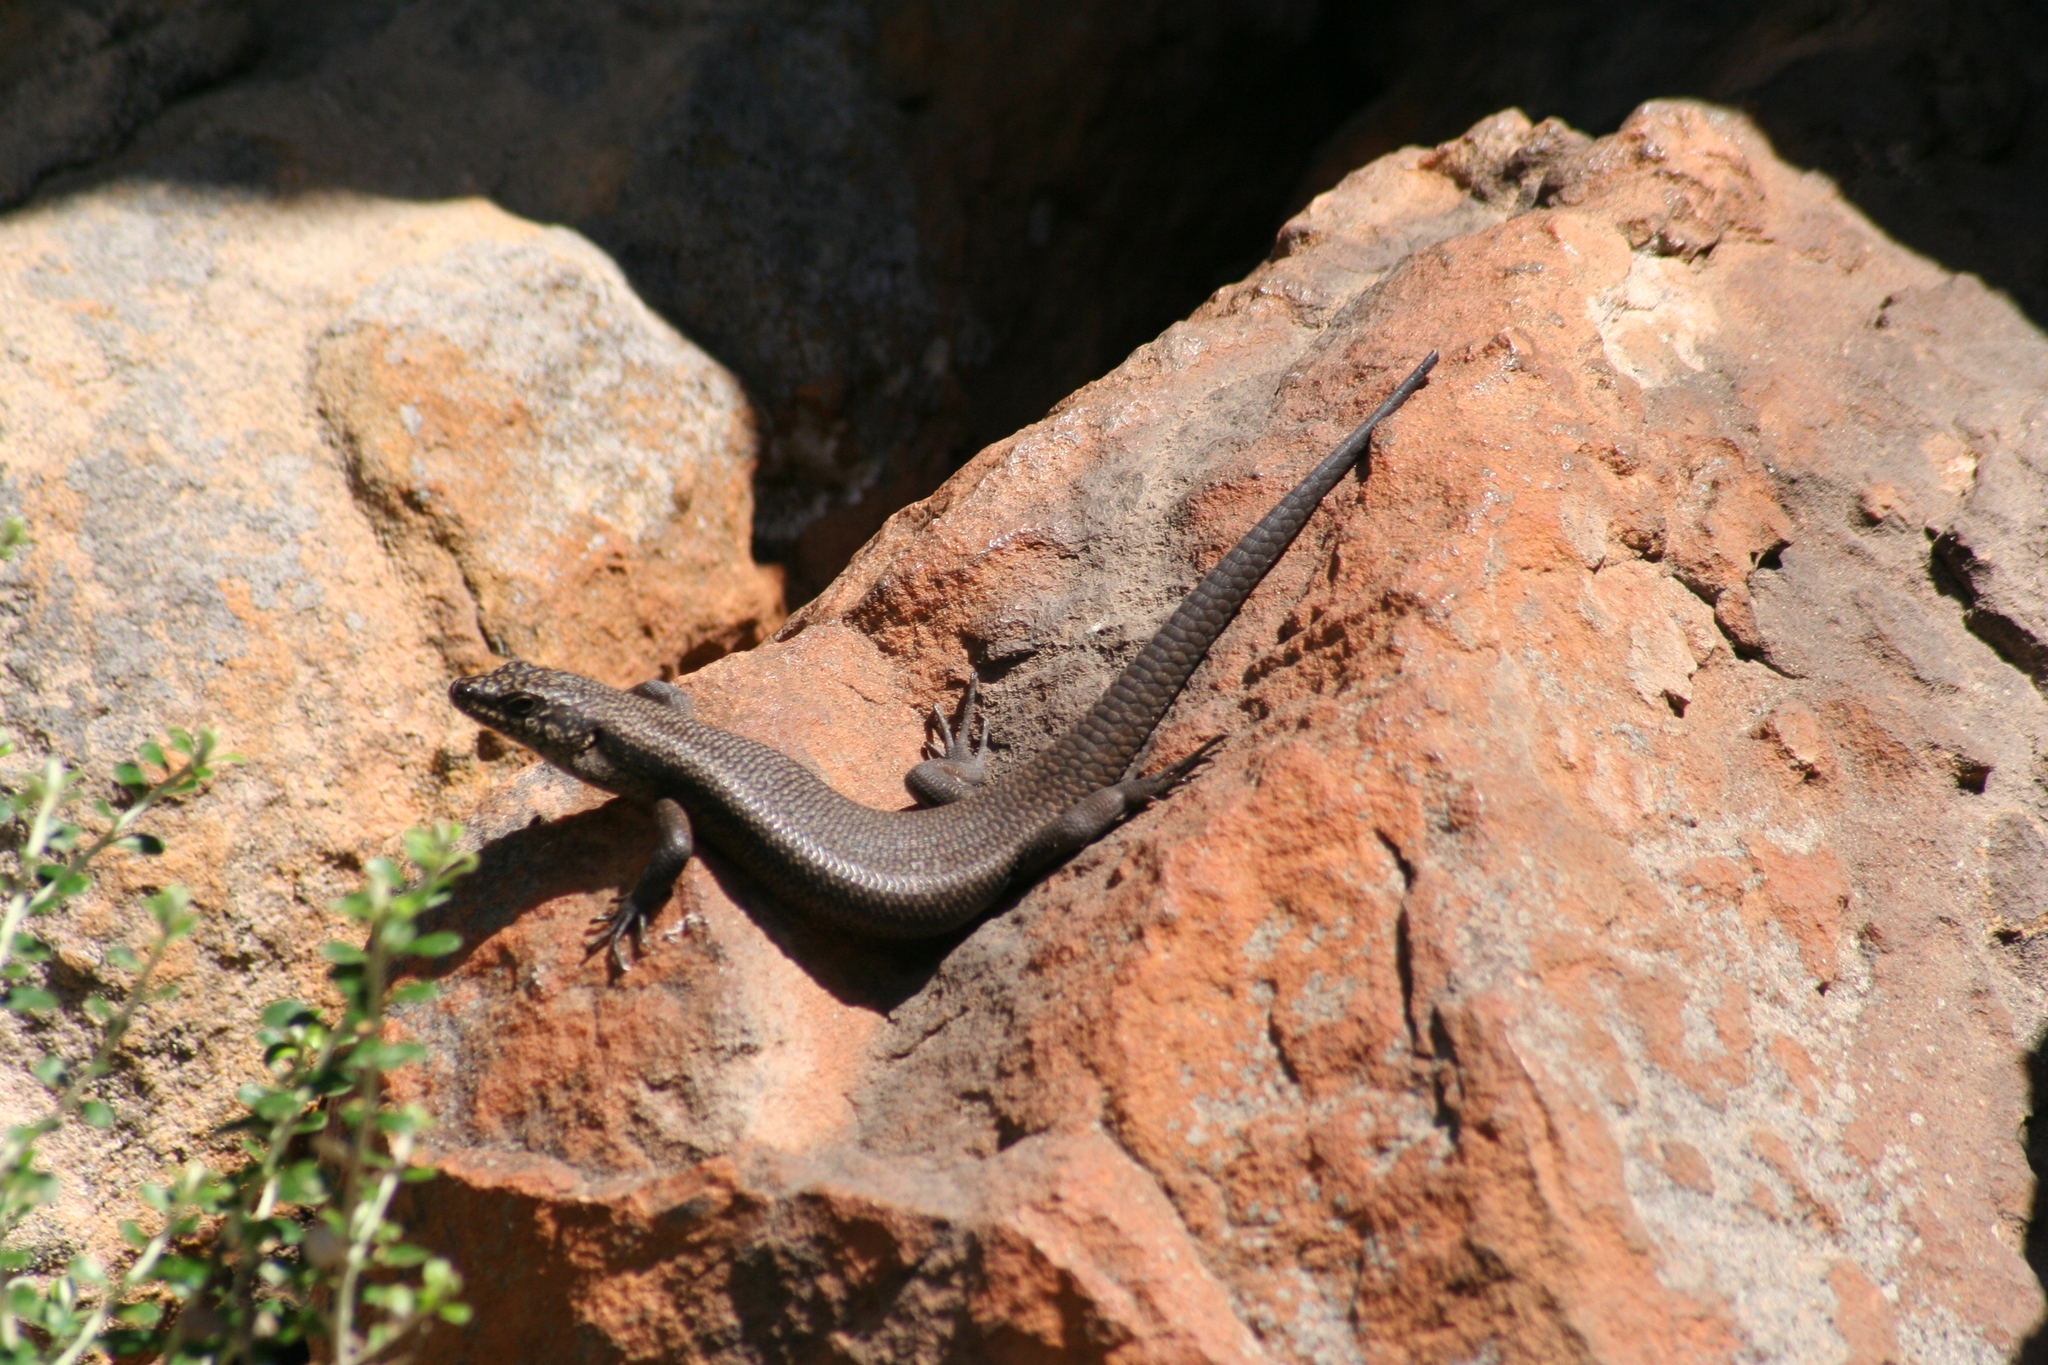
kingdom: Animalia
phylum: Chordata
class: Squamata
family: Scincidae
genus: Egernia
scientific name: Egernia saxatilis
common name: Black crevice-skink
